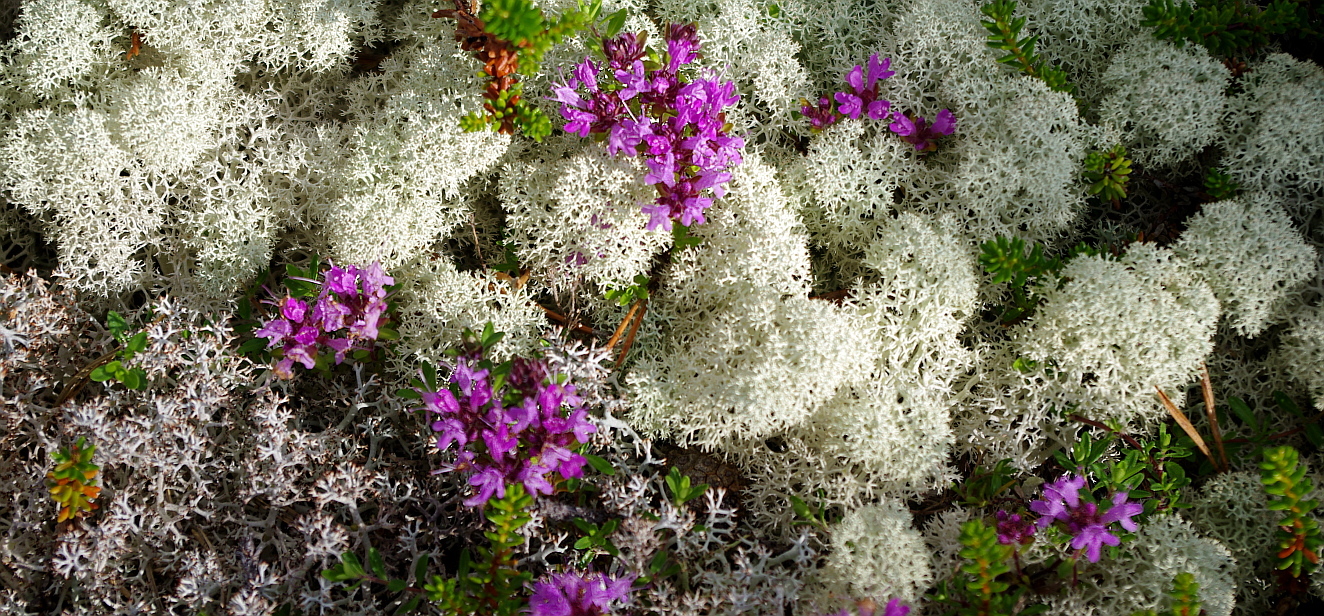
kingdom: Fungi
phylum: Ascomycota
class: Lecanoromycetes
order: Lecanorales
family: Cladoniaceae
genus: Cladonia
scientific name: Cladonia stellaris
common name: Star-tipped reindeer lichen
